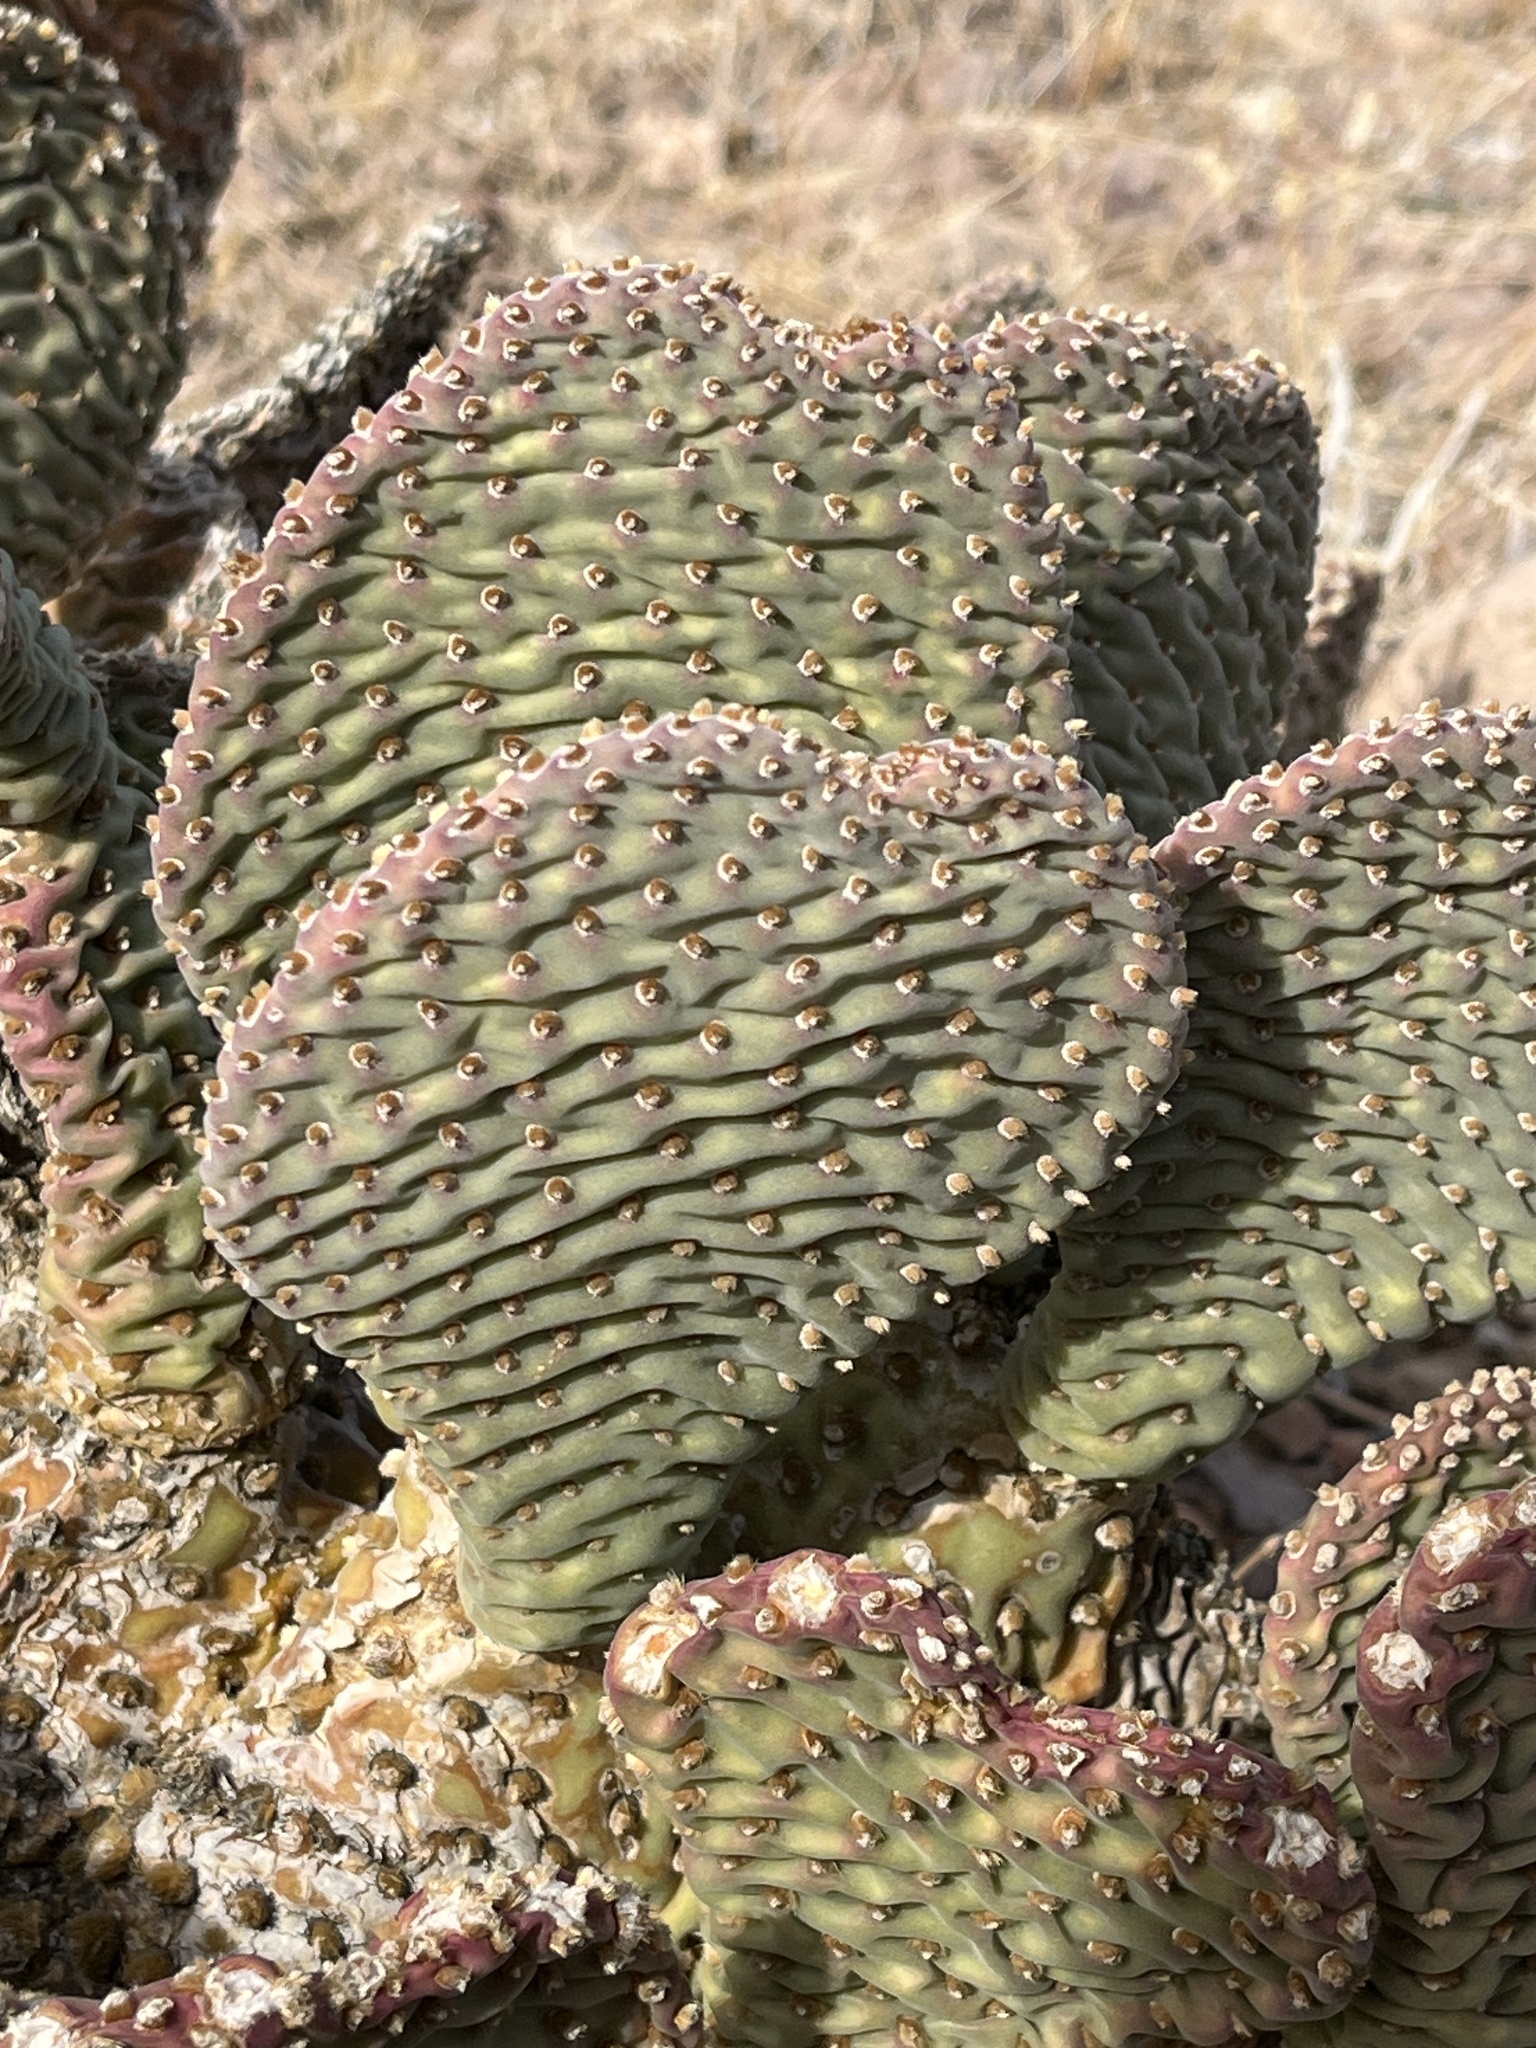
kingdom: Plantae
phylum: Tracheophyta
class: Magnoliopsida
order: Caryophyllales
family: Cactaceae
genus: Opuntia
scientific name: Opuntia basilaris
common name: Beavertail prickly-pear
